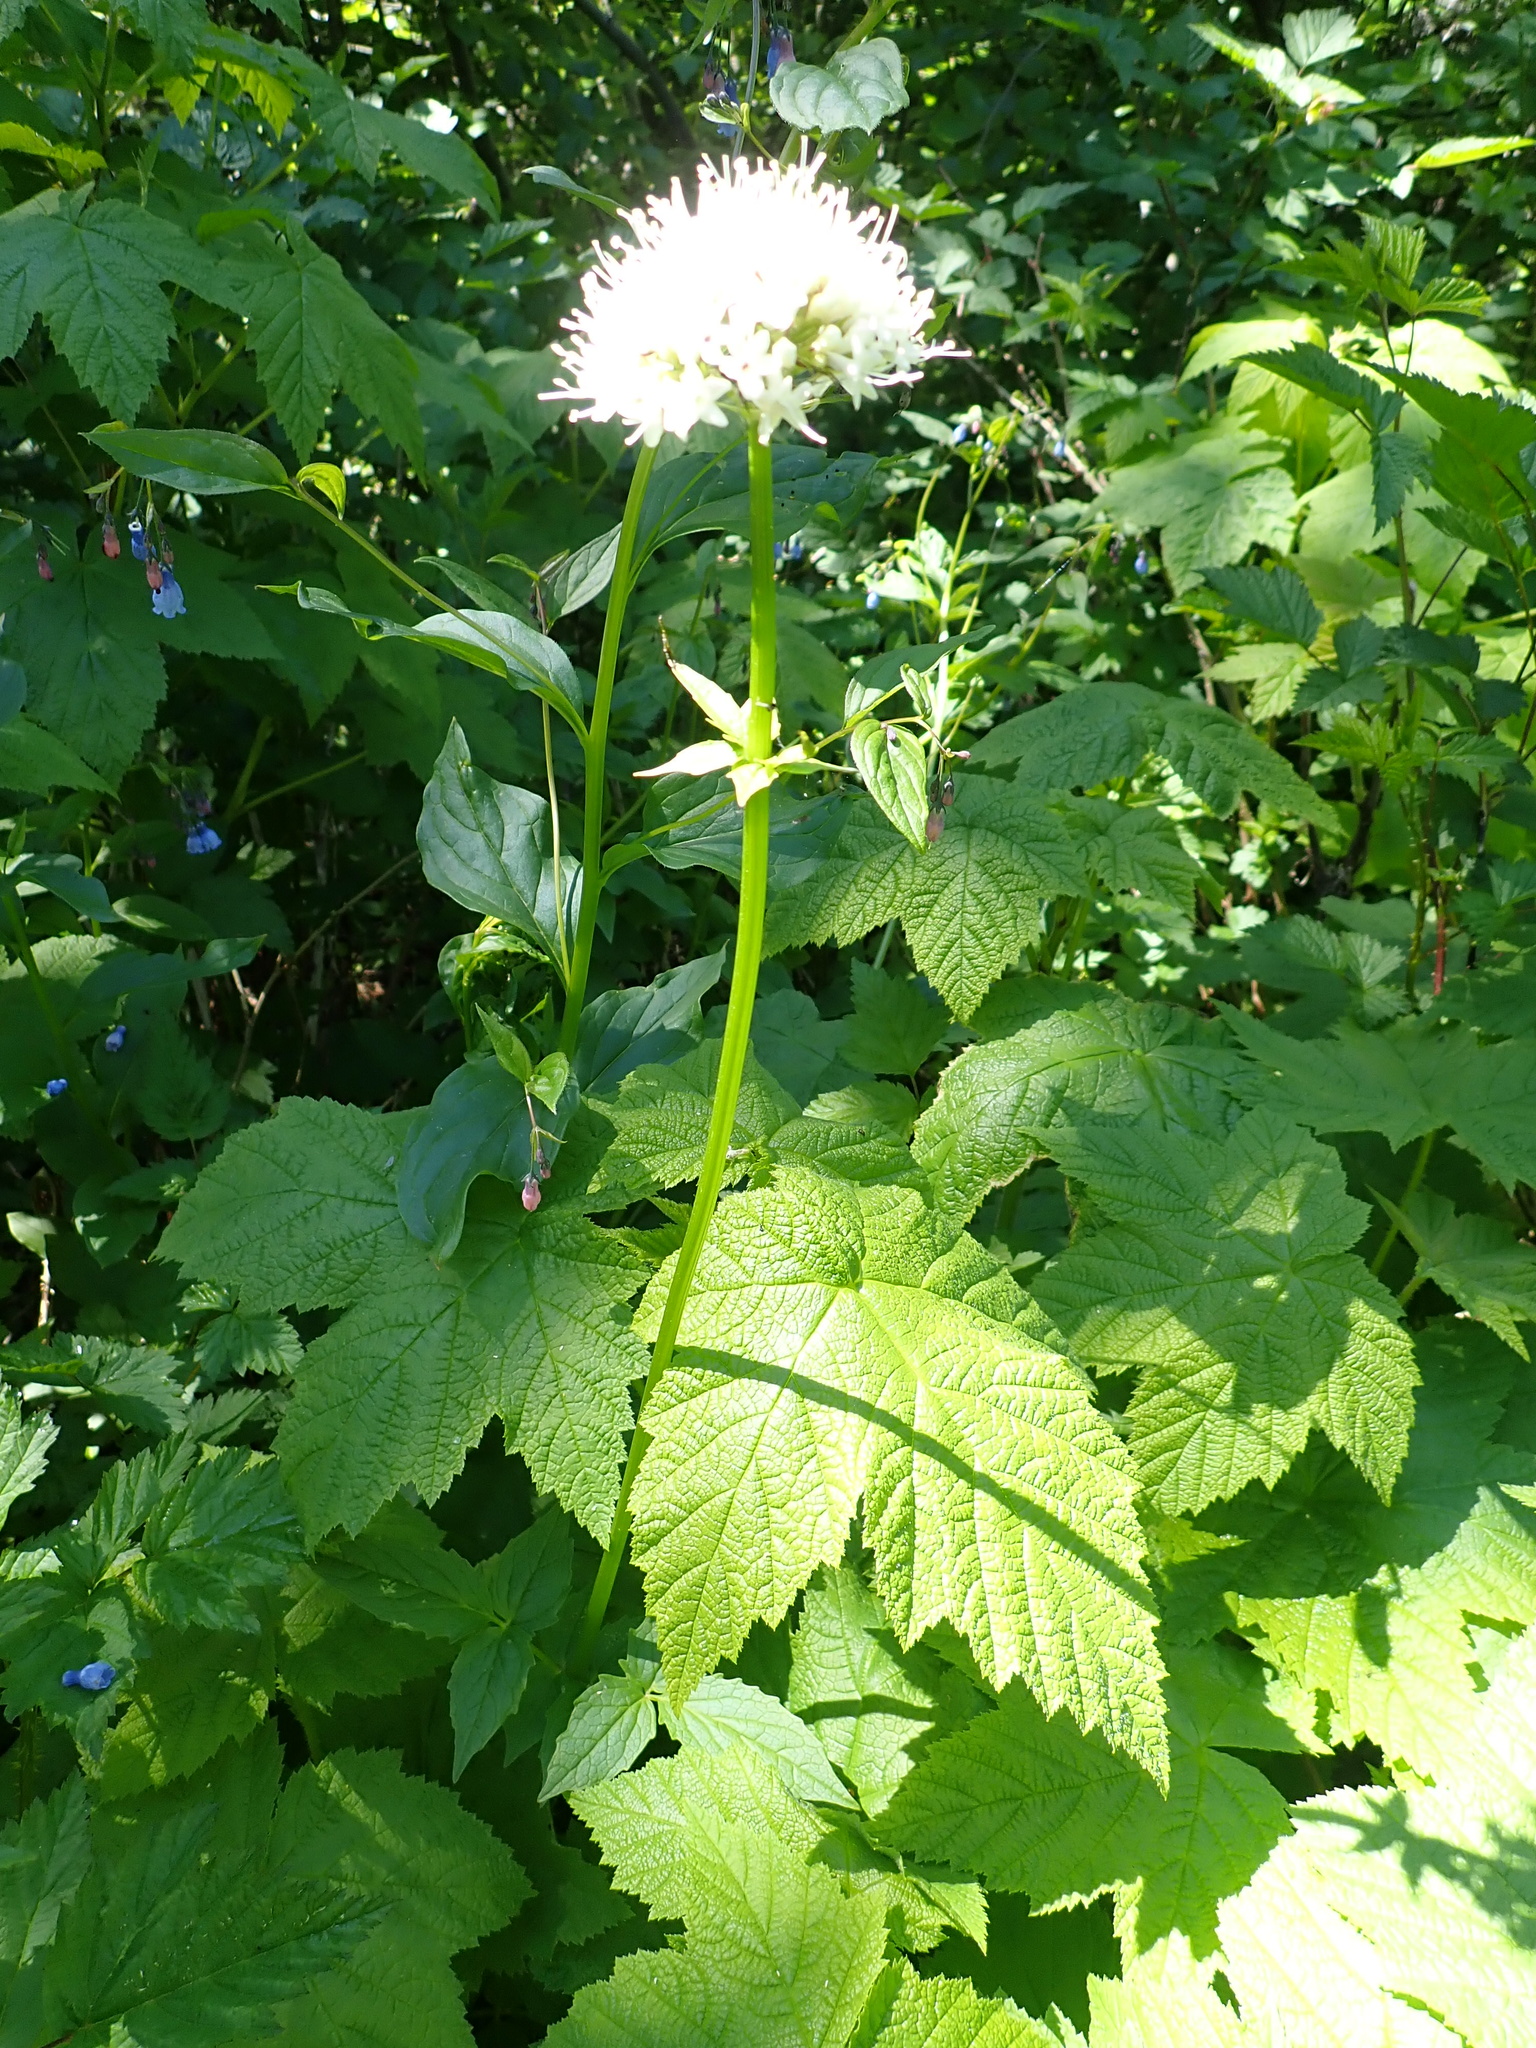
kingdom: Plantae
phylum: Tracheophyta
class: Magnoliopsida
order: Dipsacales
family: Caprifoliaceae
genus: Valeriana
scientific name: Valeriana sitchensis
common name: Pacific valerian
